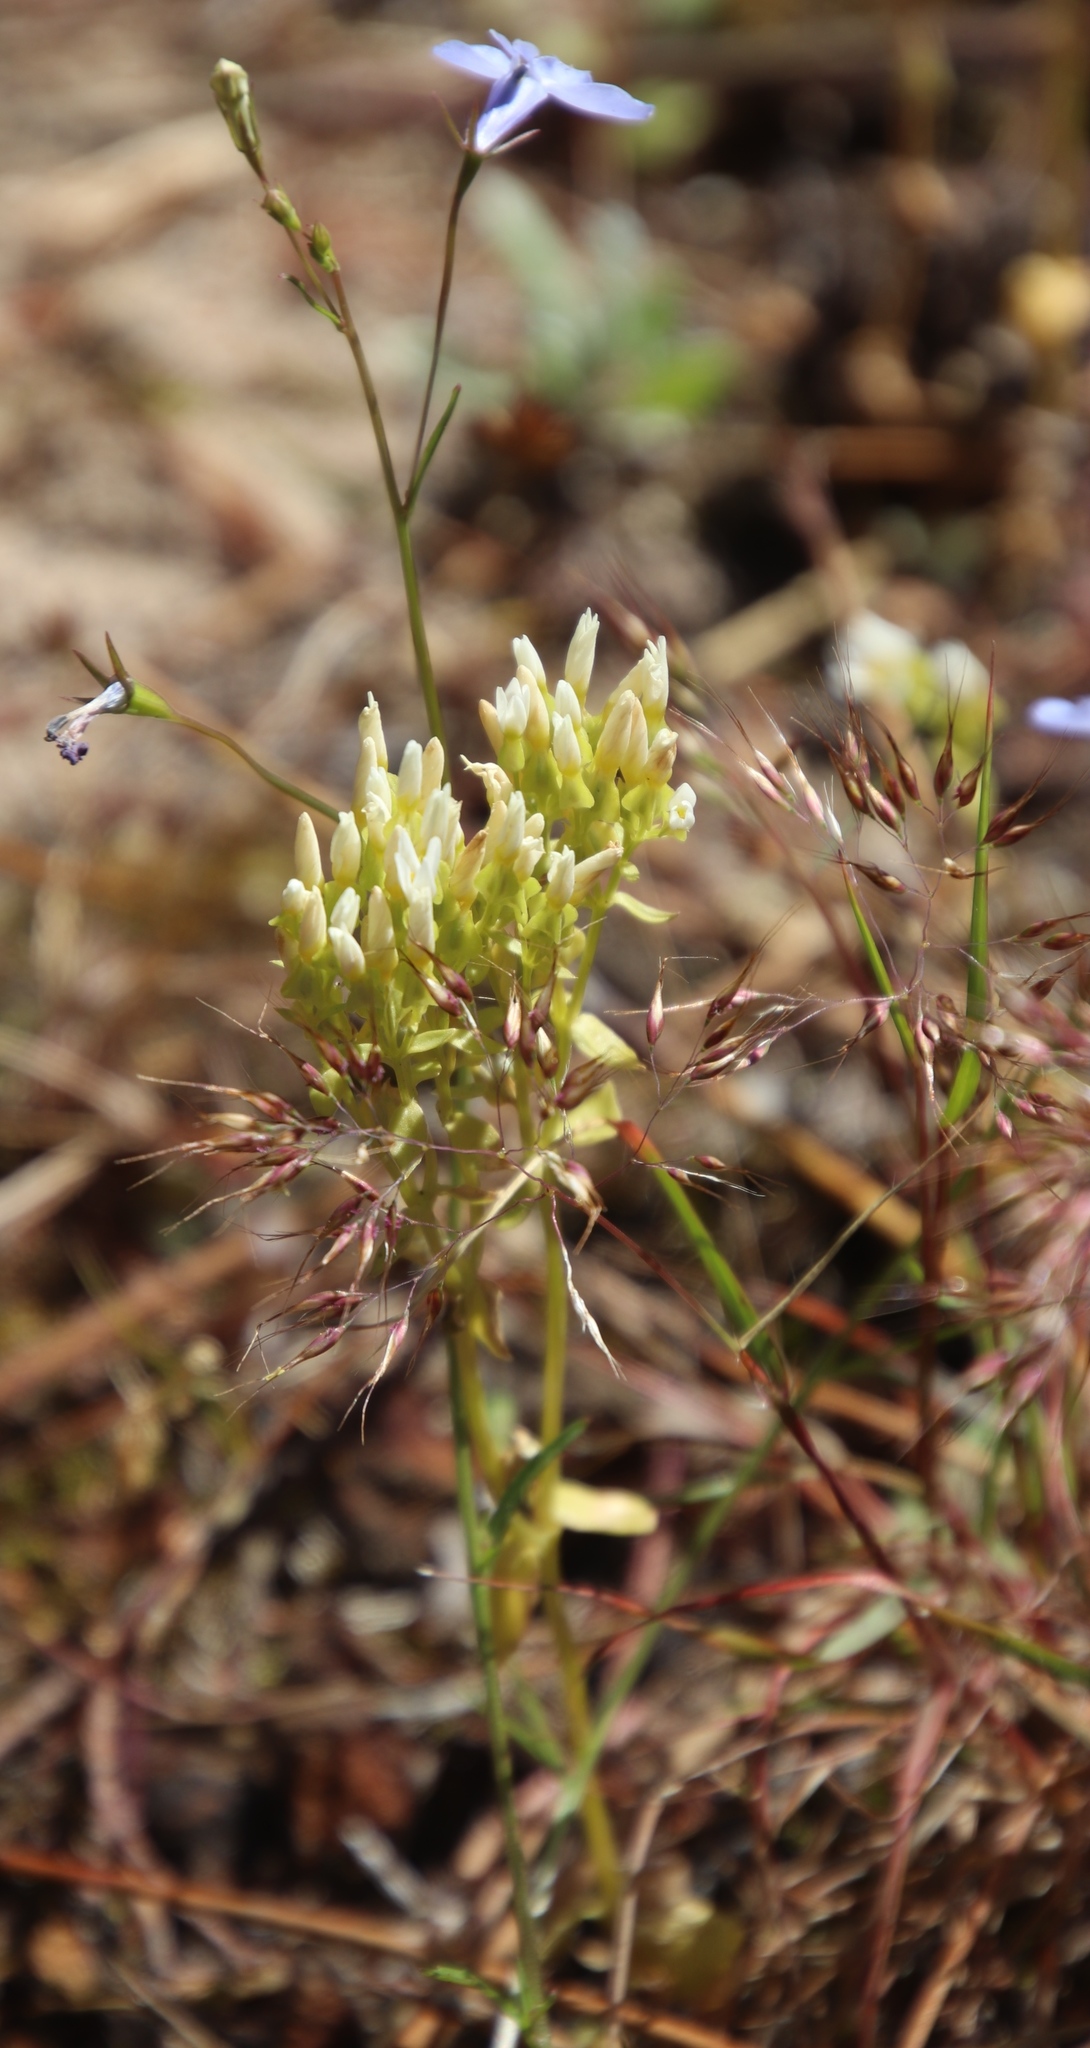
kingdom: Plantae
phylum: Tracheophyta
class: Magnoliopsida
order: Asterales
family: Campanulaceae
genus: Lobelia
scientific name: Lobelia erinus
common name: Edging lobelia
